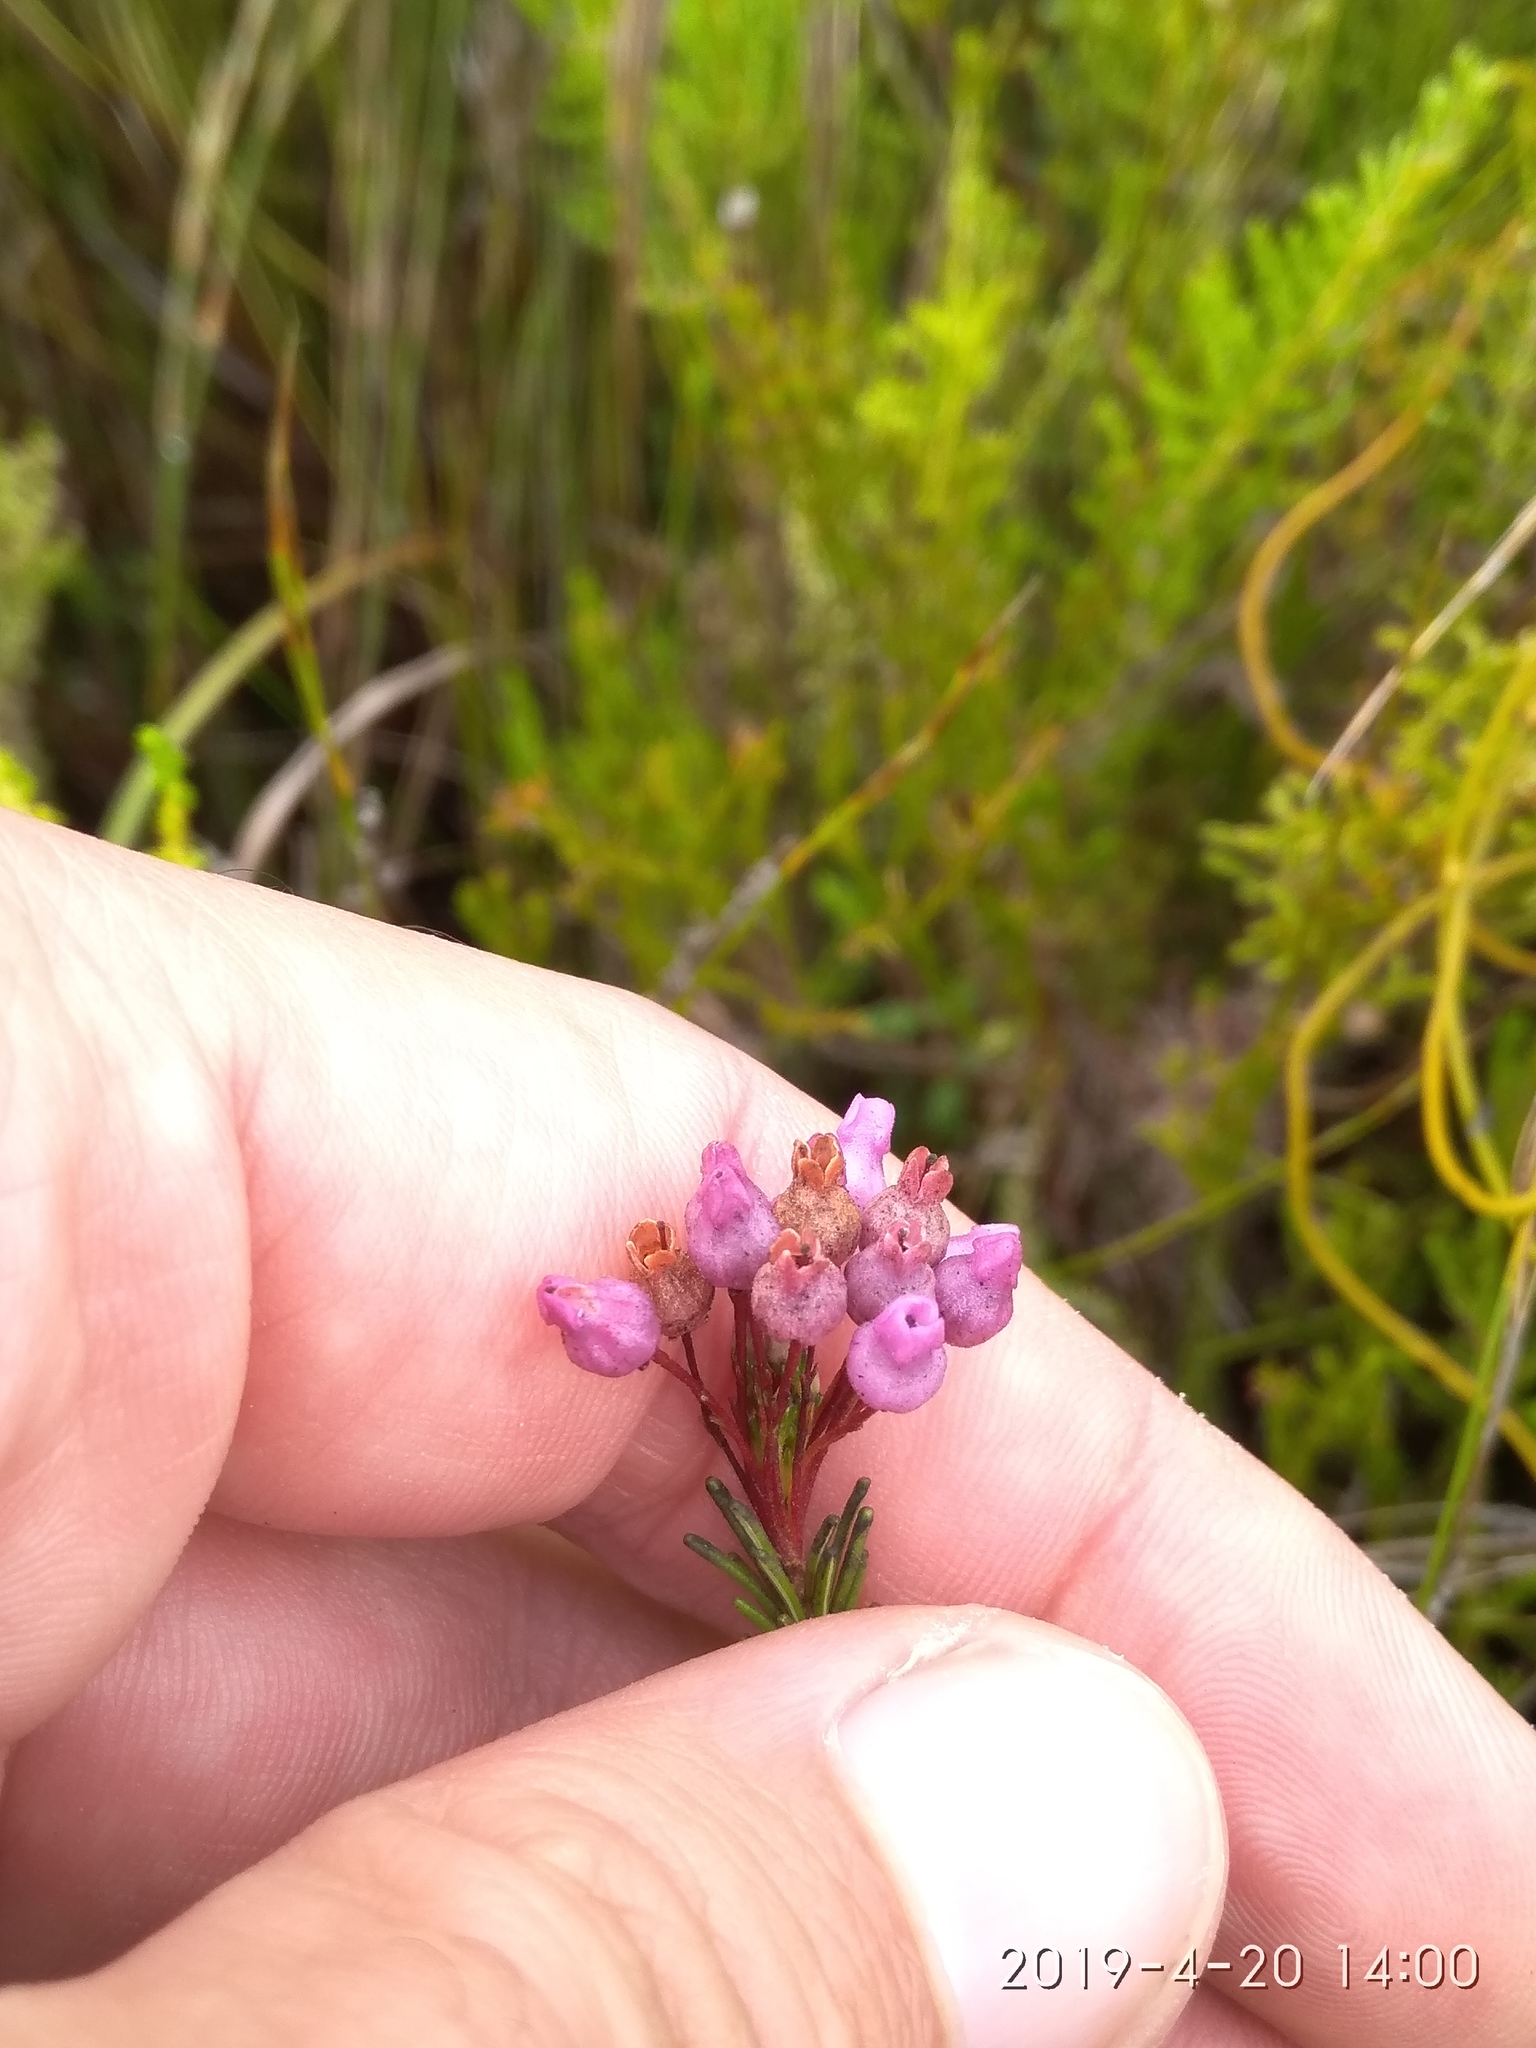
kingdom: Plantae
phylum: Tracheophyta
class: Magnoliopsida
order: Ericales
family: Ericaceae
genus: Erica
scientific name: Erica obliqua
